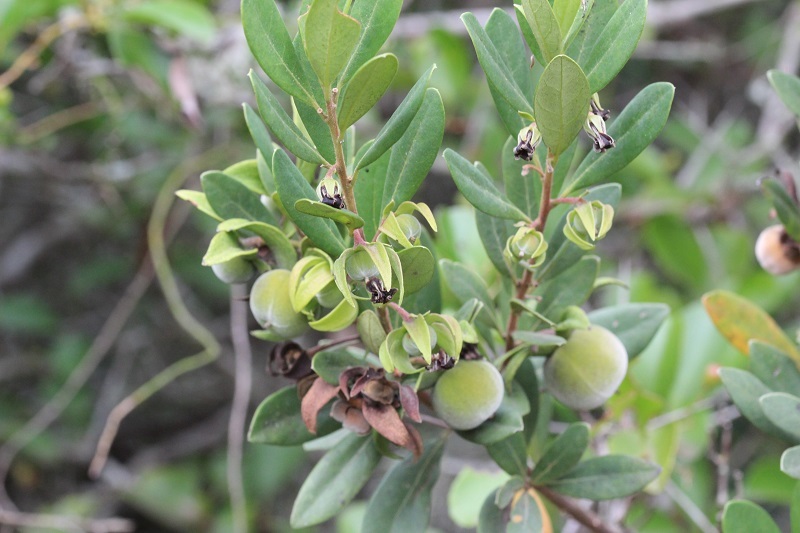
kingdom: Plantae
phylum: Tracheophyta
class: Magnoliopsida
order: Ericales
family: Ebenaceae
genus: Diospyros
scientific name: Diospyros dichrophylla
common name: Common star-apple
